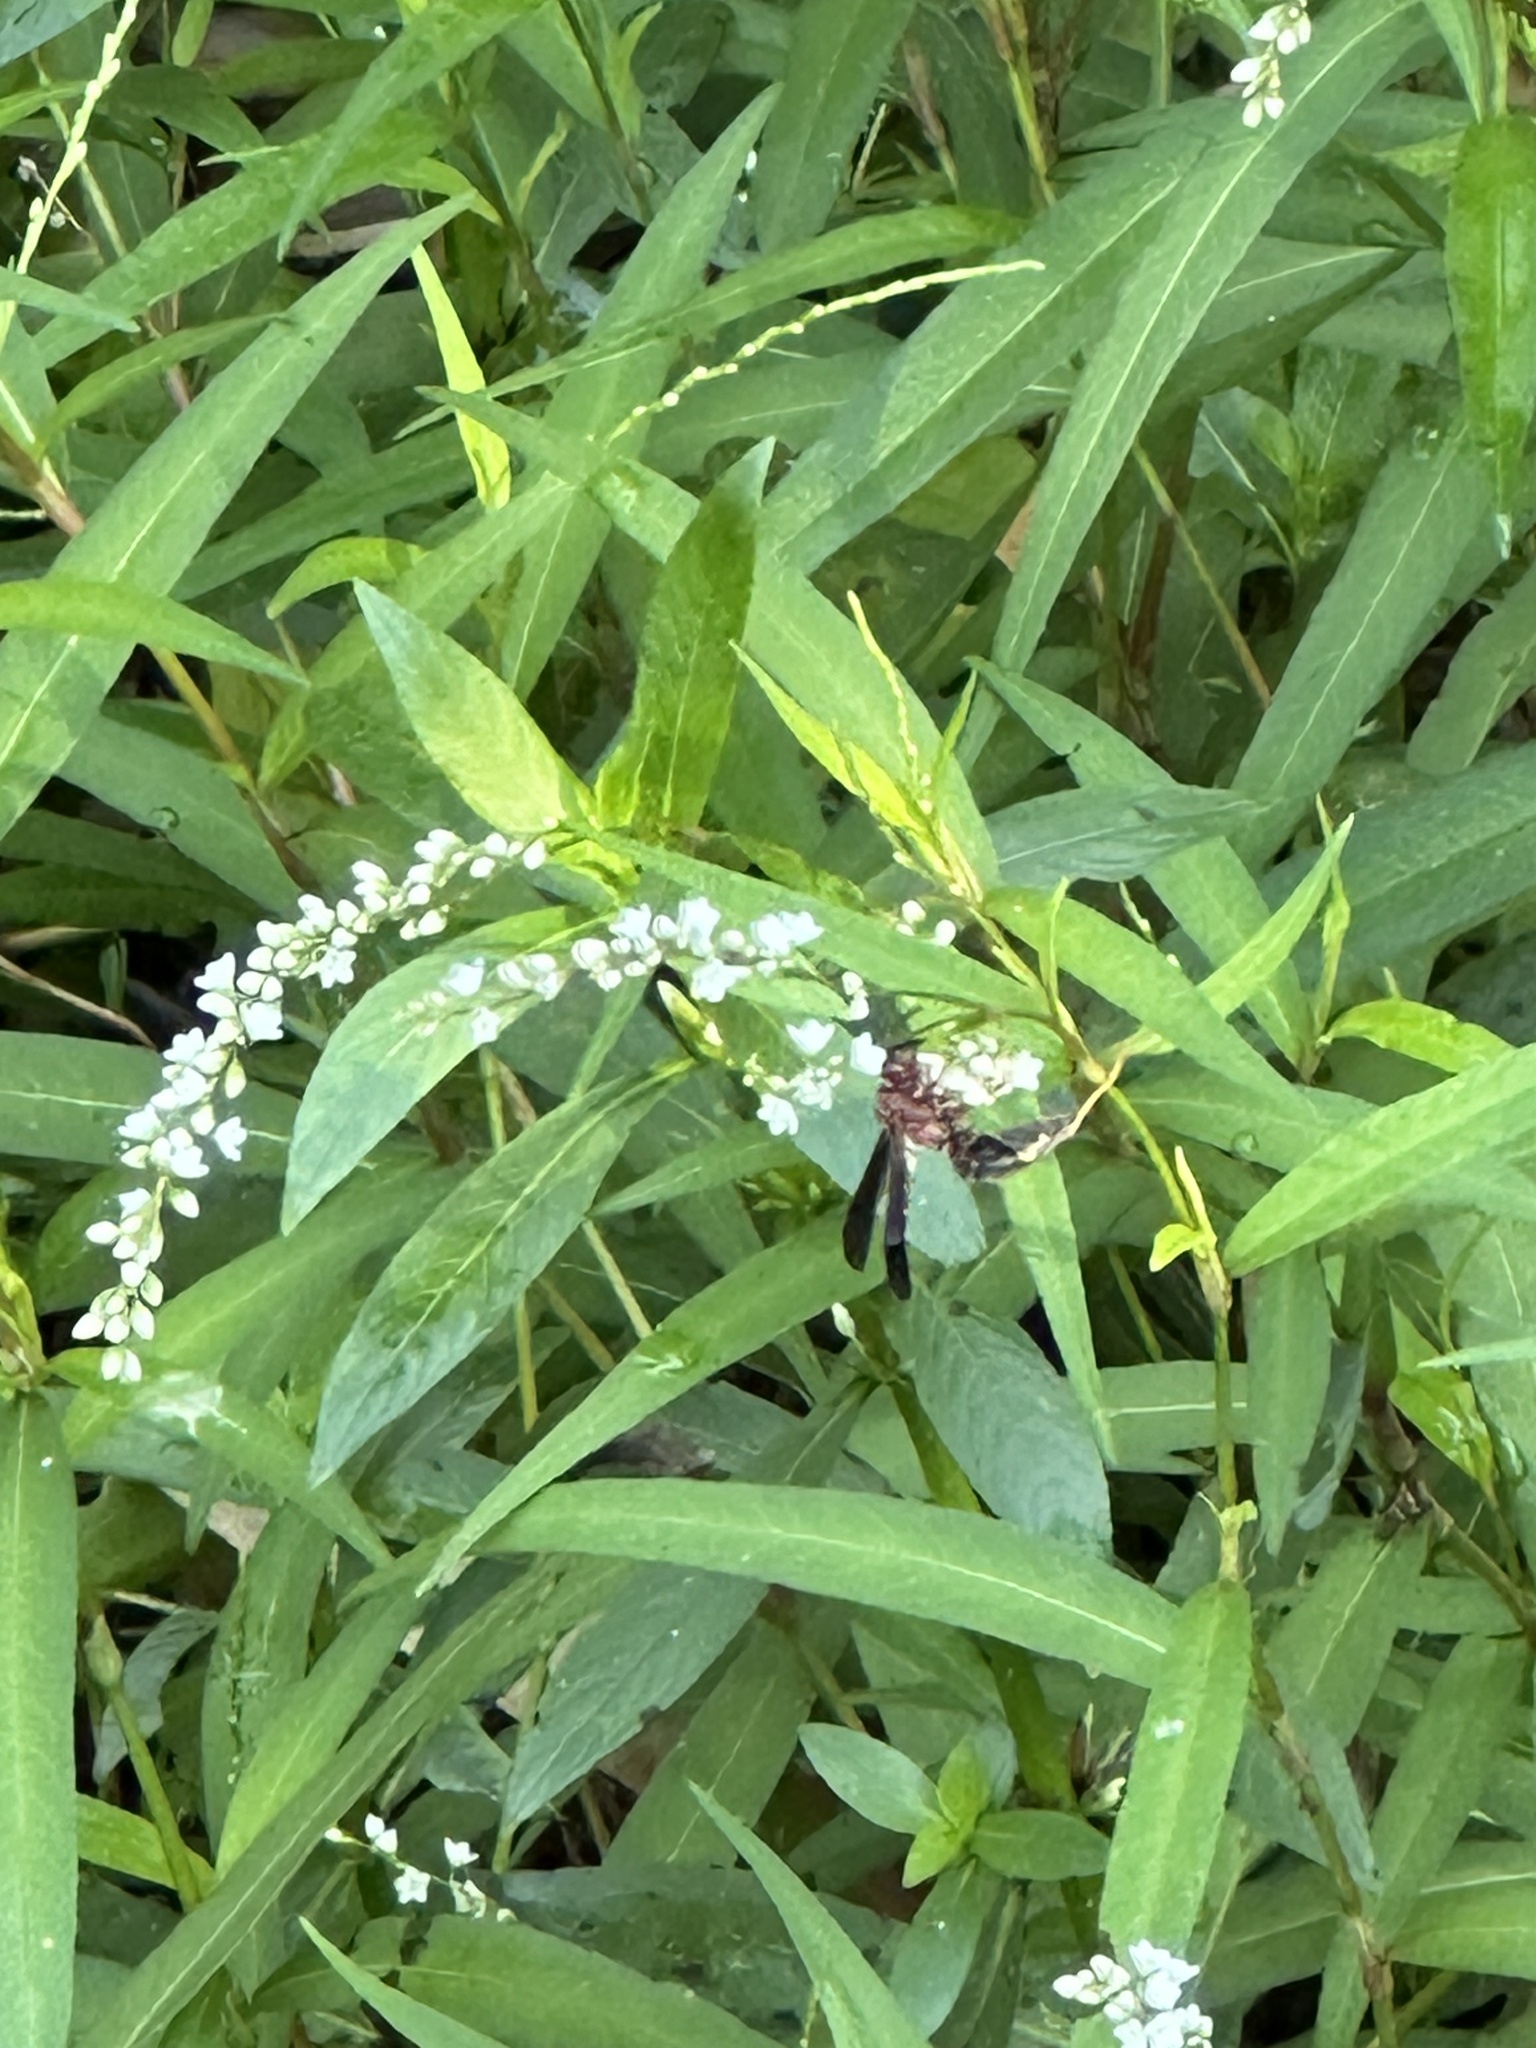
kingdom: Animalia
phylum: Arthropoda
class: Insecta
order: Hymenoptera
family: Eumenidae
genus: Polistes
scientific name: Polistes metricus
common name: Metric paper wasp
